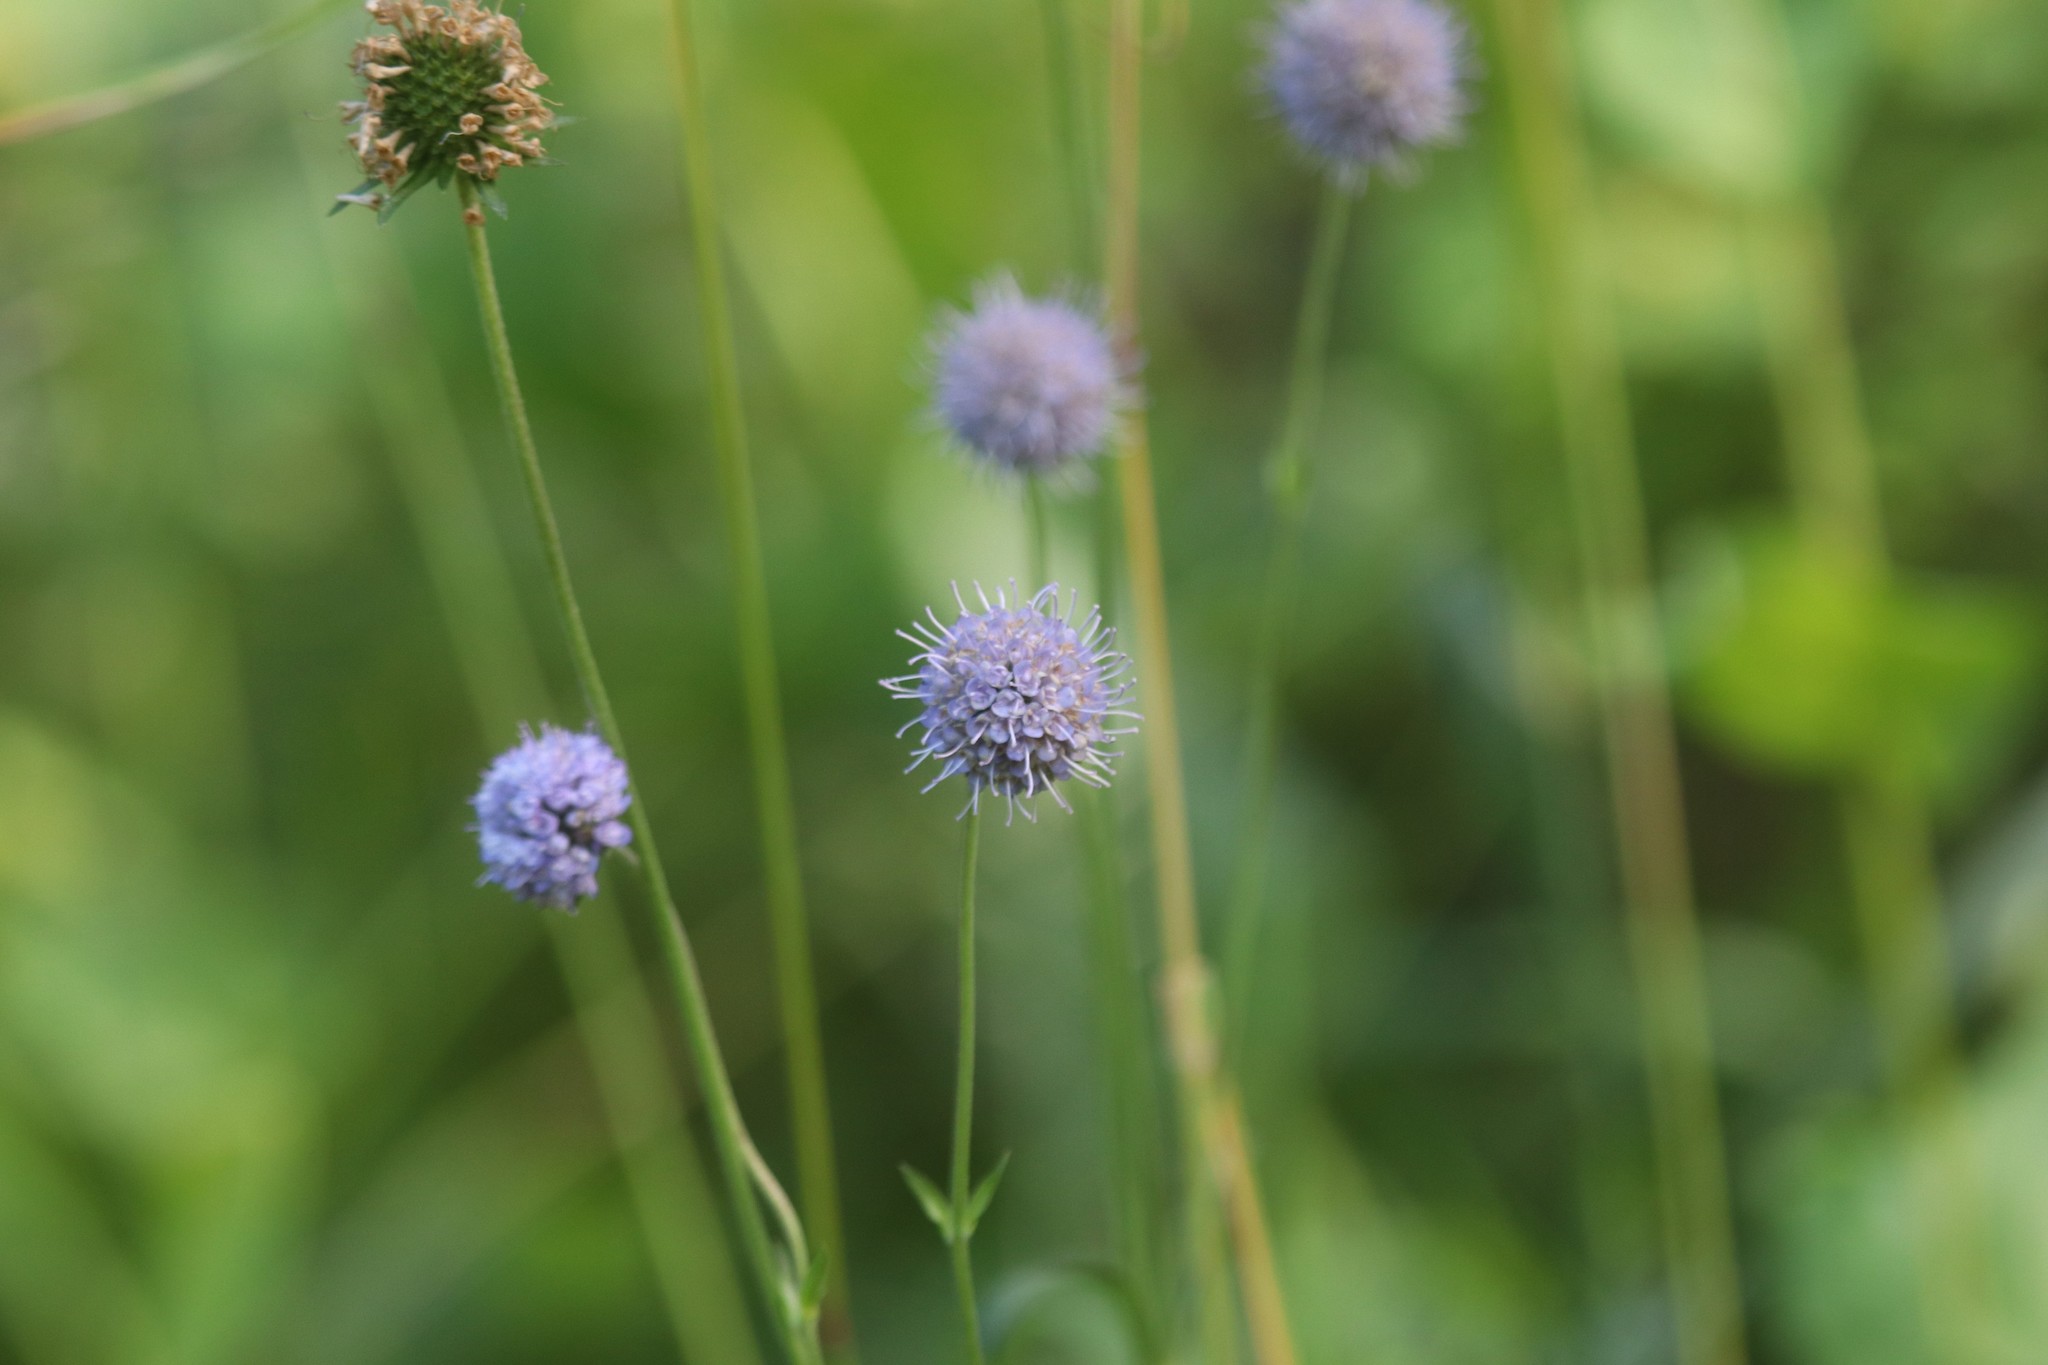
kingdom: Plantae
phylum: Tracheophyta
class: Magnoliopsida
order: Dipsacales
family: Caprifoliaceae
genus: Succisa
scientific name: Succisa pratensis
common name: Devil's-bit
